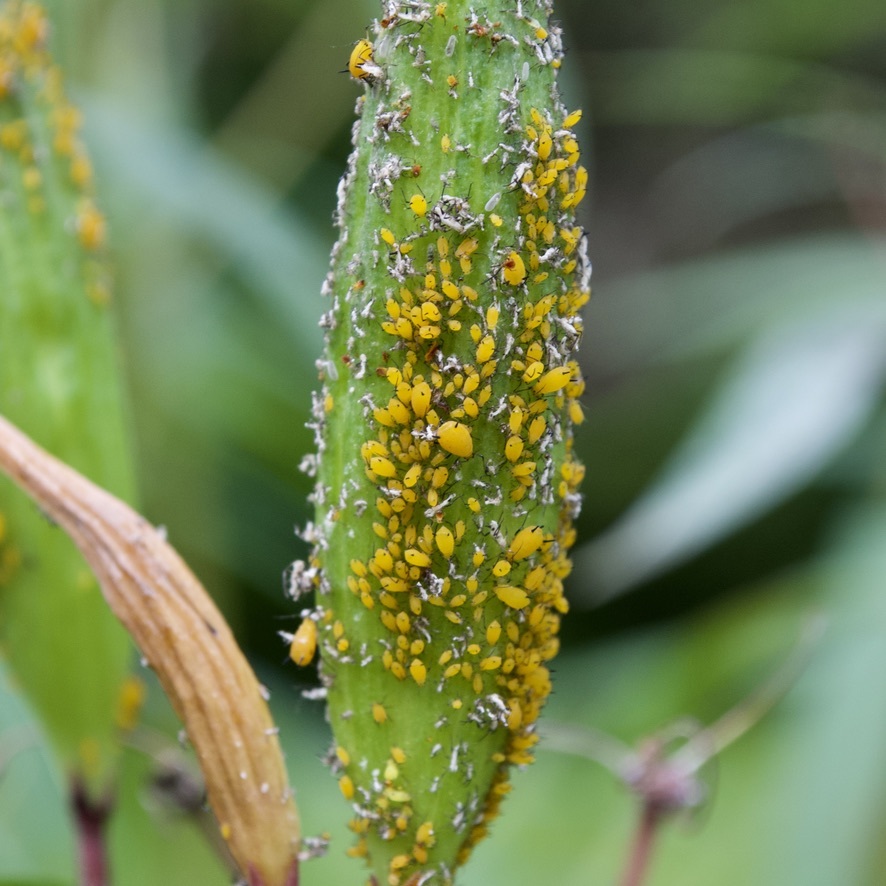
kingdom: Animalia
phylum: Arthropoda
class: Insecta
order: Hemiptera
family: Aphididae
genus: Aphis
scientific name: Aphis nerii
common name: Oleander aphid
